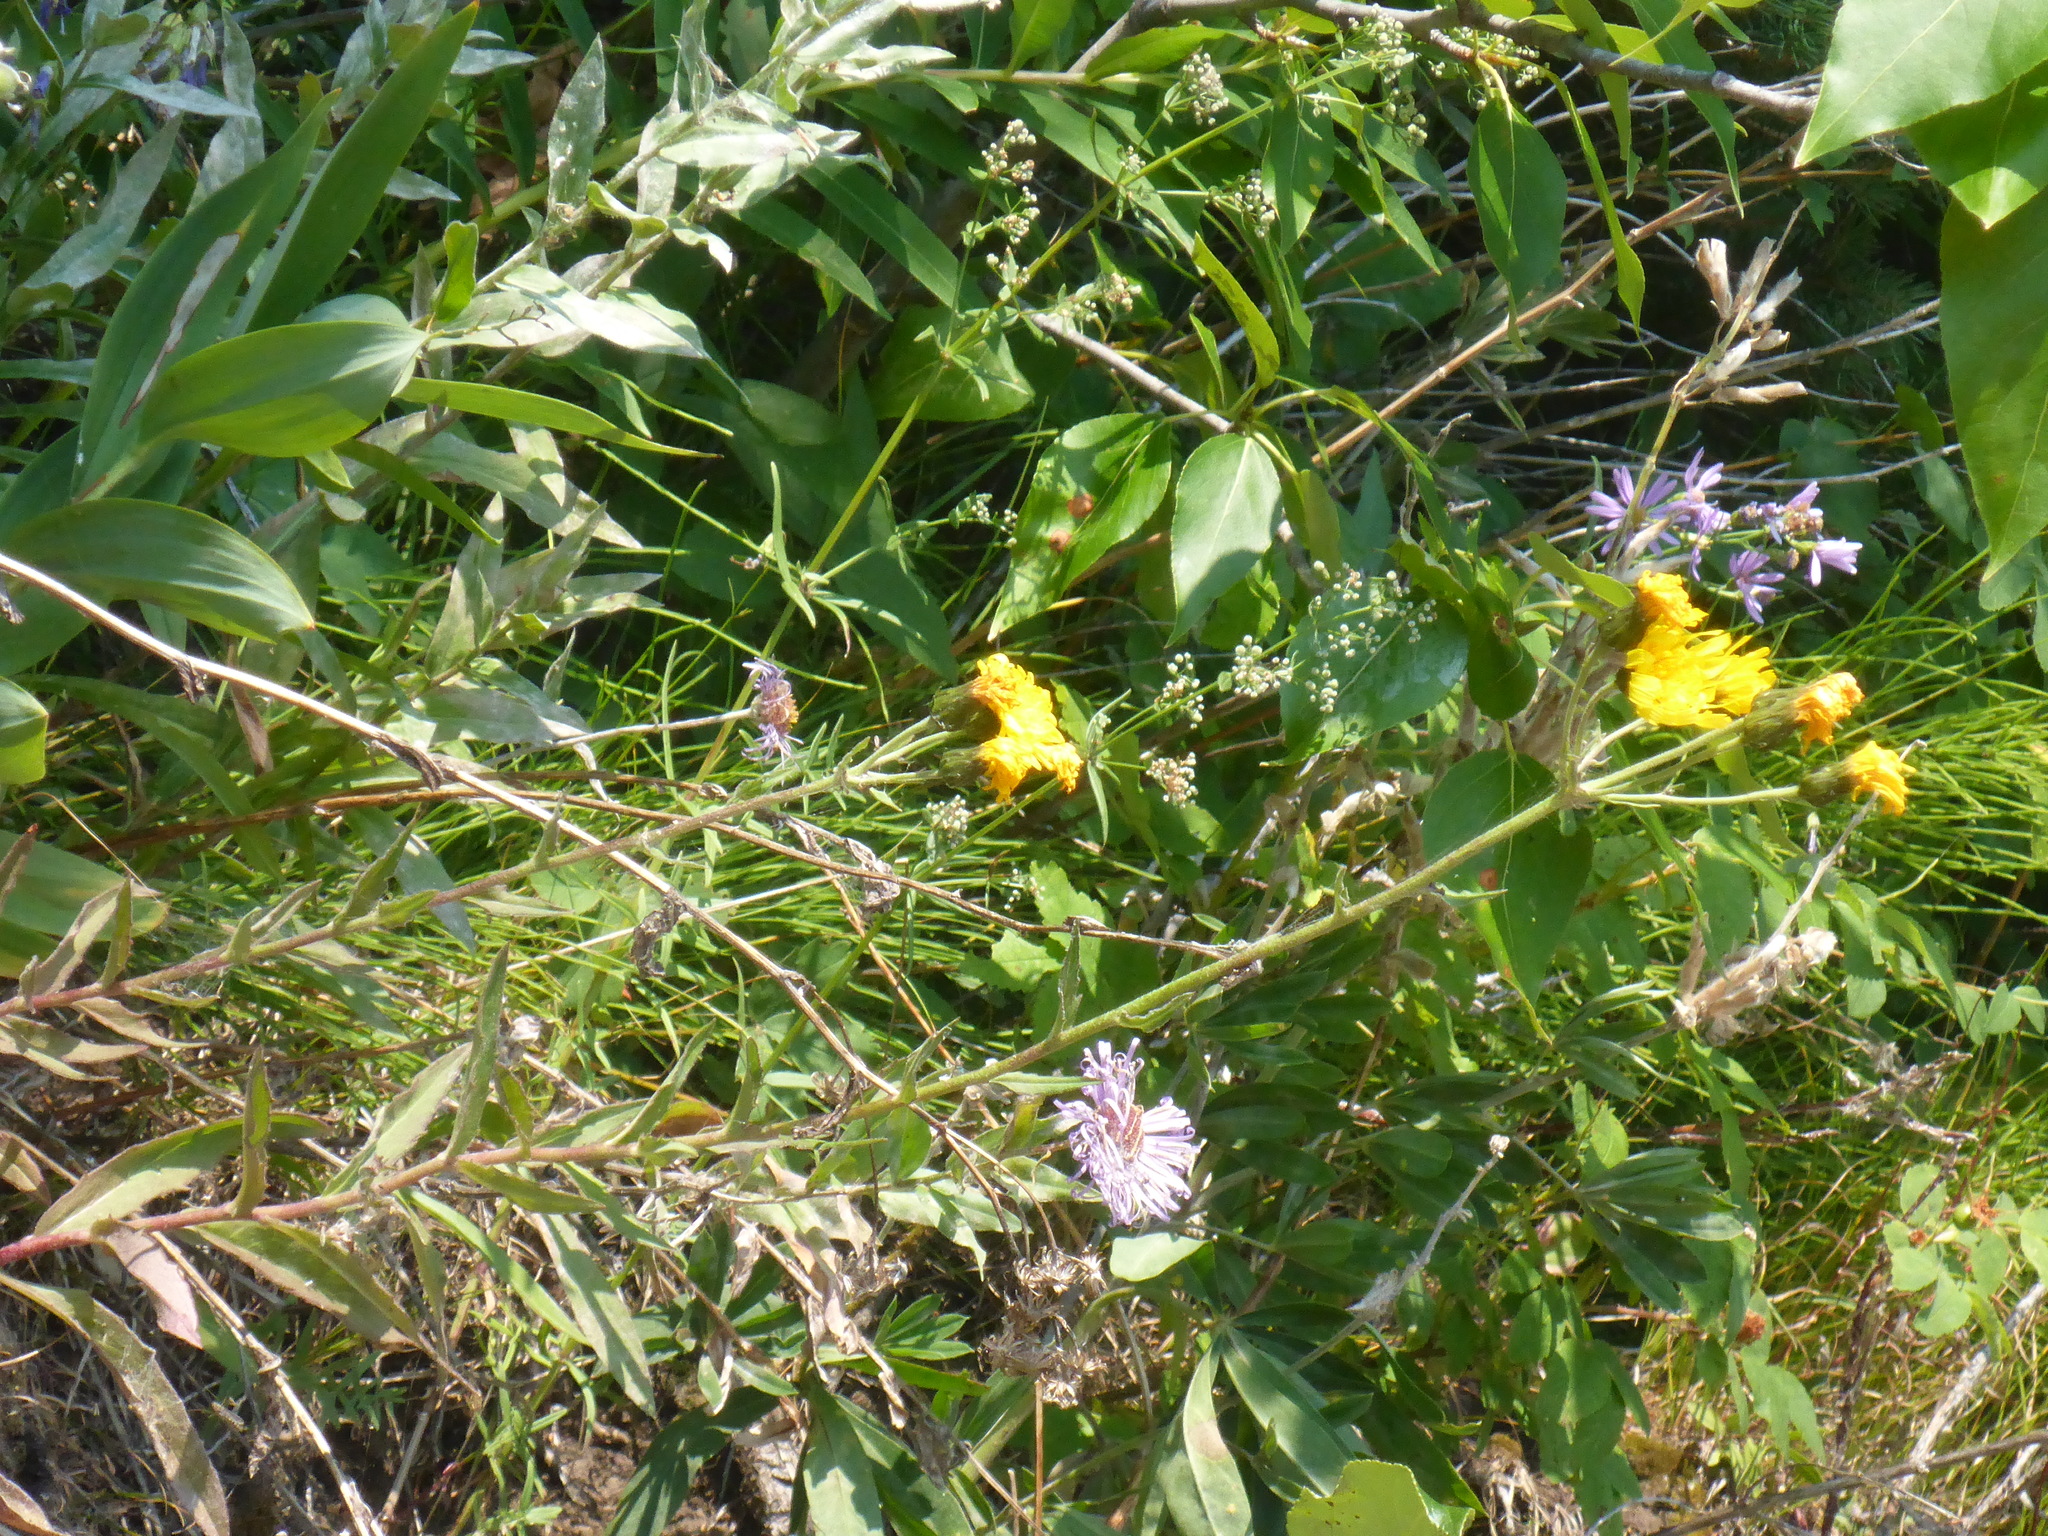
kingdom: Plantae
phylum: Tracheophyta
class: Magnoliopsida
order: Asterales
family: Asteraceae
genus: Hieracium
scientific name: Hieracium umbellatum
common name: Northern hawkweed
